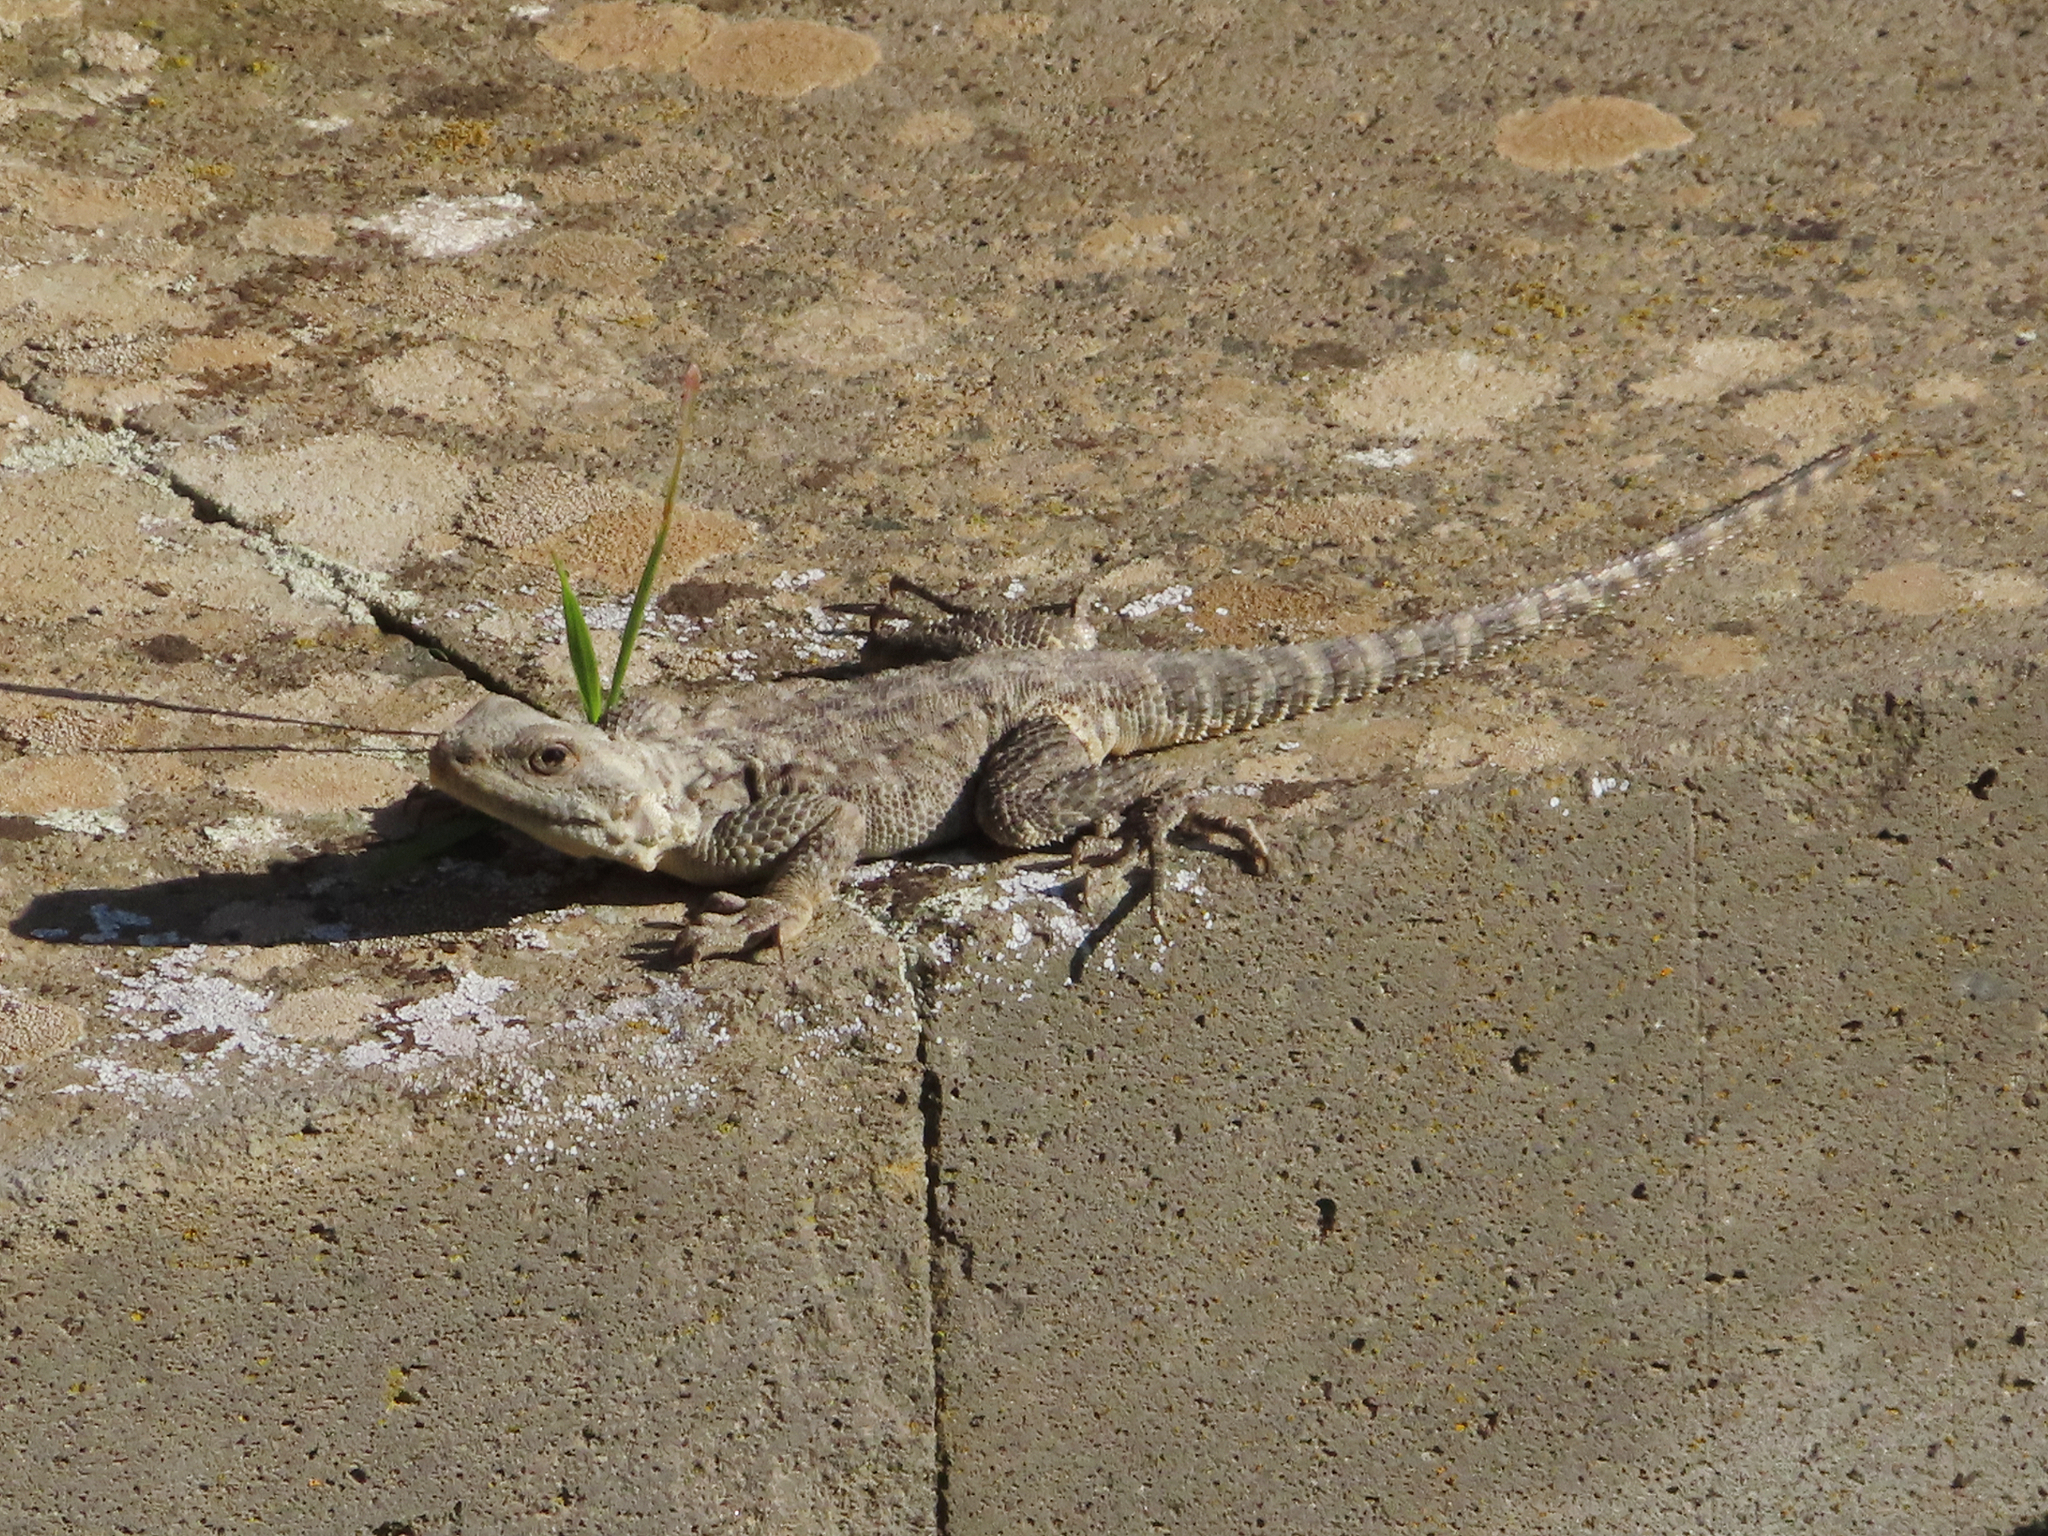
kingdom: Animalia
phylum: Chordata
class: Squamata
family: Agamidae
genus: Paralaudakia
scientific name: Paralaudakia caucasia
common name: Caucasian agama
